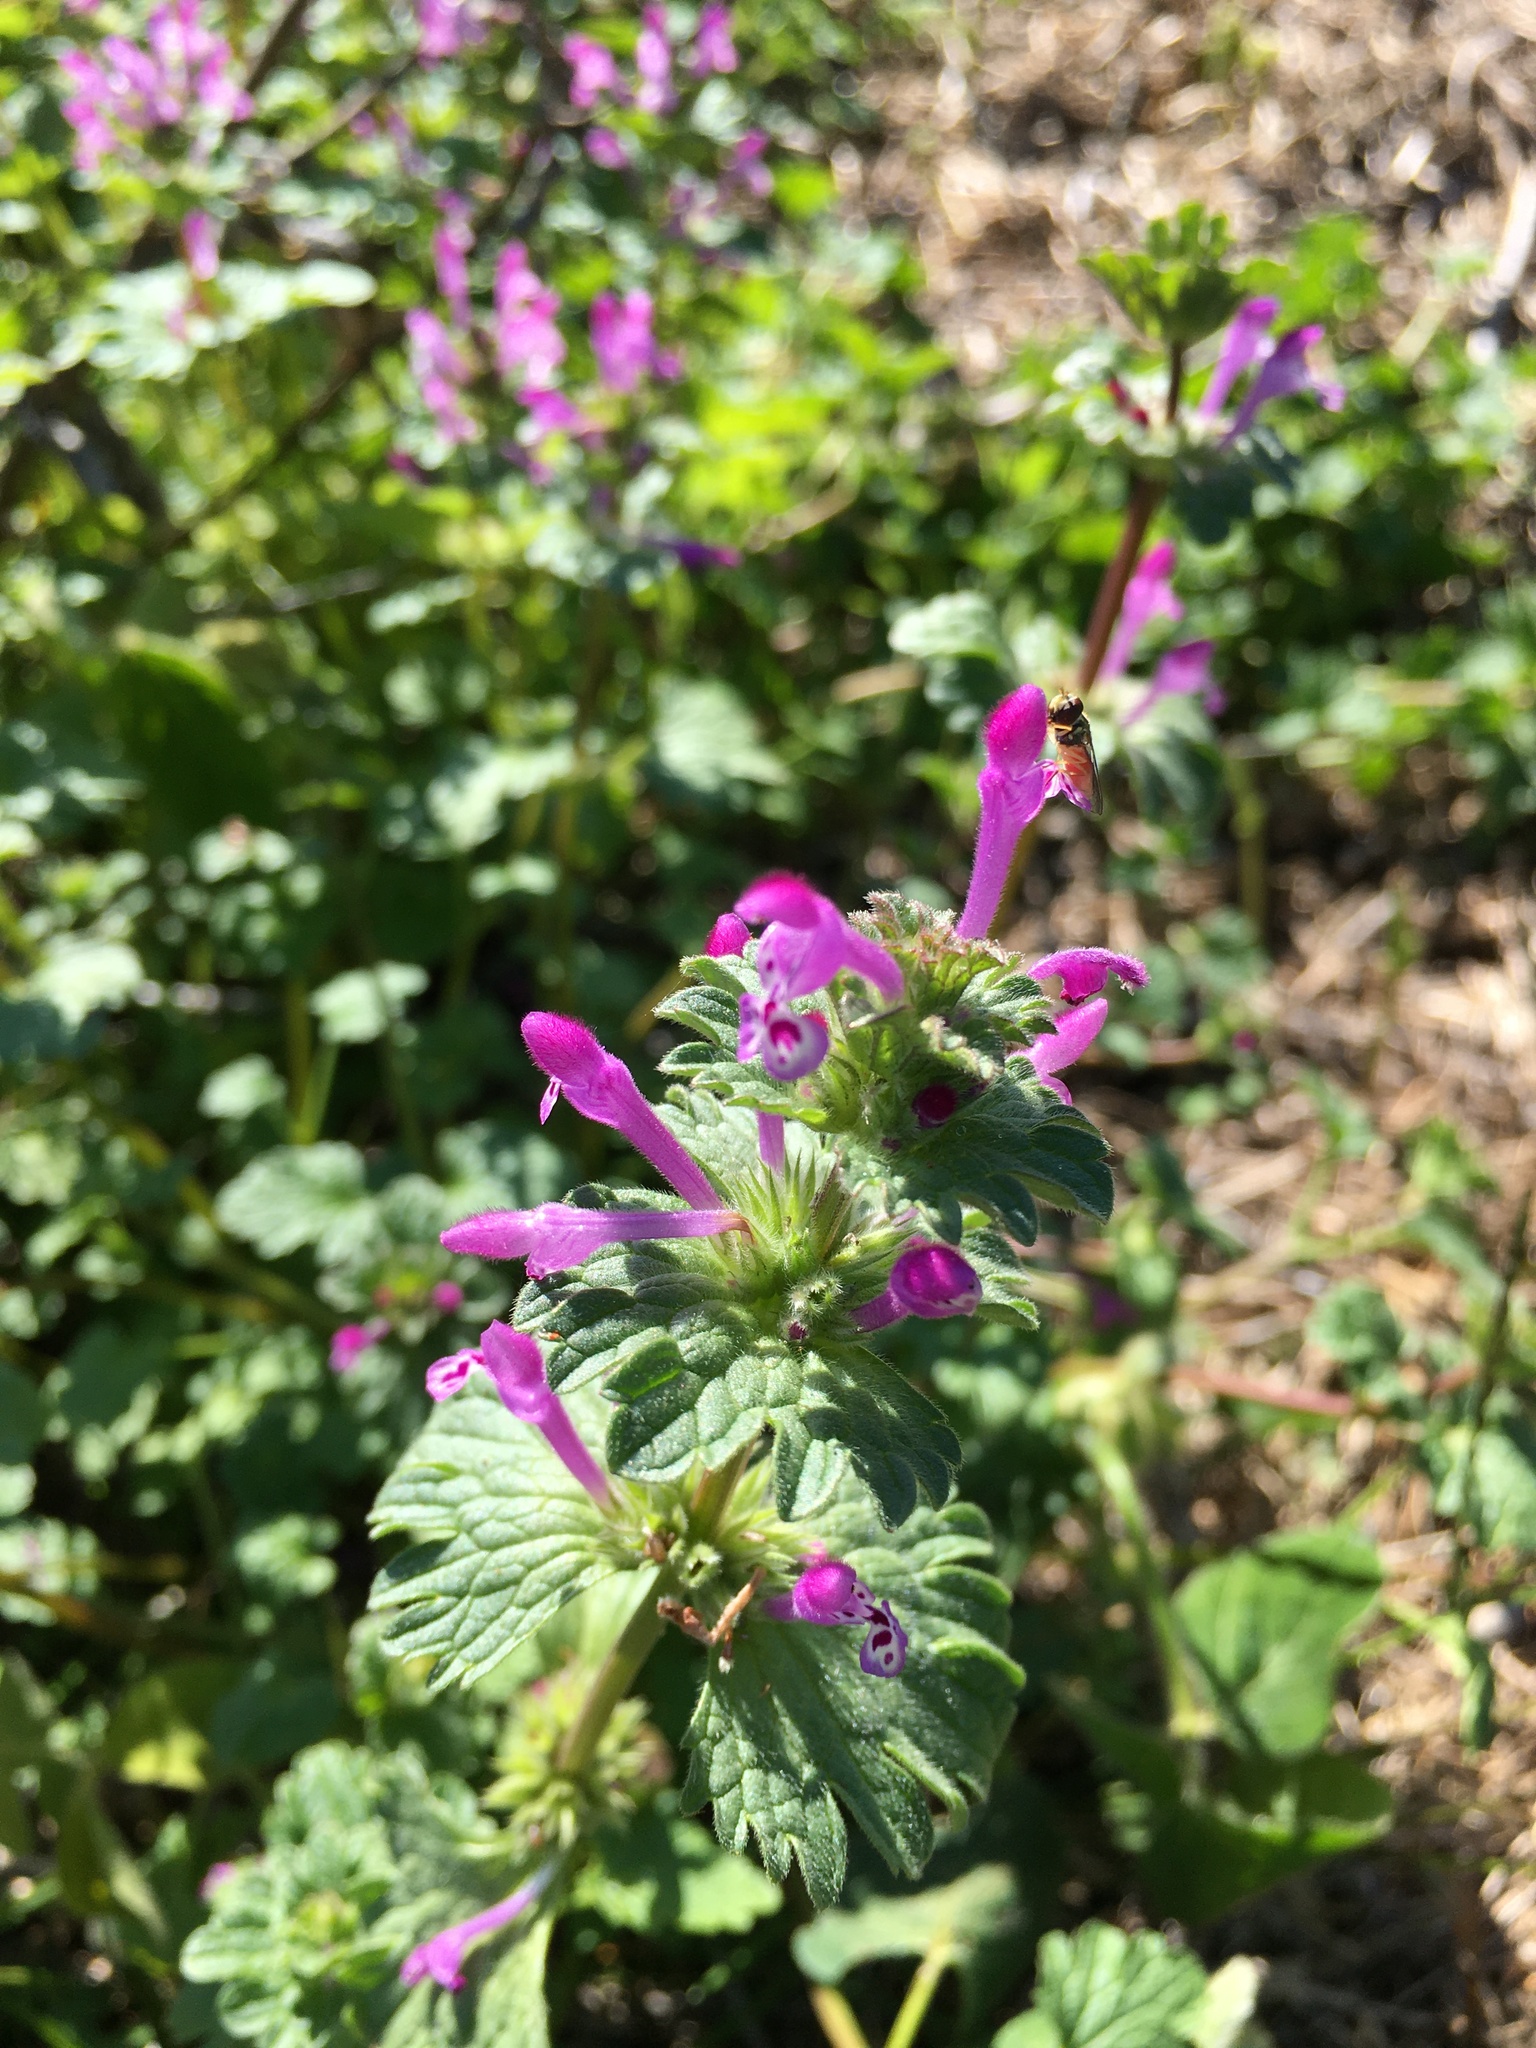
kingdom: Plantae
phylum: Tracheophyta
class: Magnoliopsida
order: Lamiales
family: Lamiaceae
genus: Lamium
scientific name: Lamium amplexicaule
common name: Henbit dead-nettle
